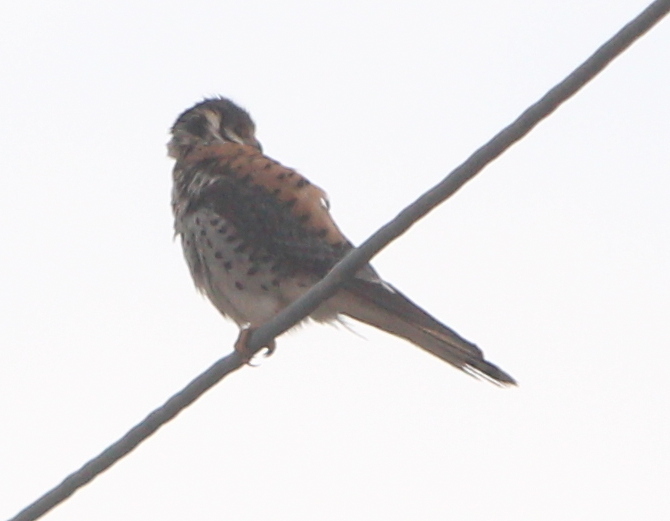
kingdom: Animalia
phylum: Chordata
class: Aves
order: Falconiformes
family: Falconidae
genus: Falco
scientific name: Falco sparverius
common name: American kestrel
